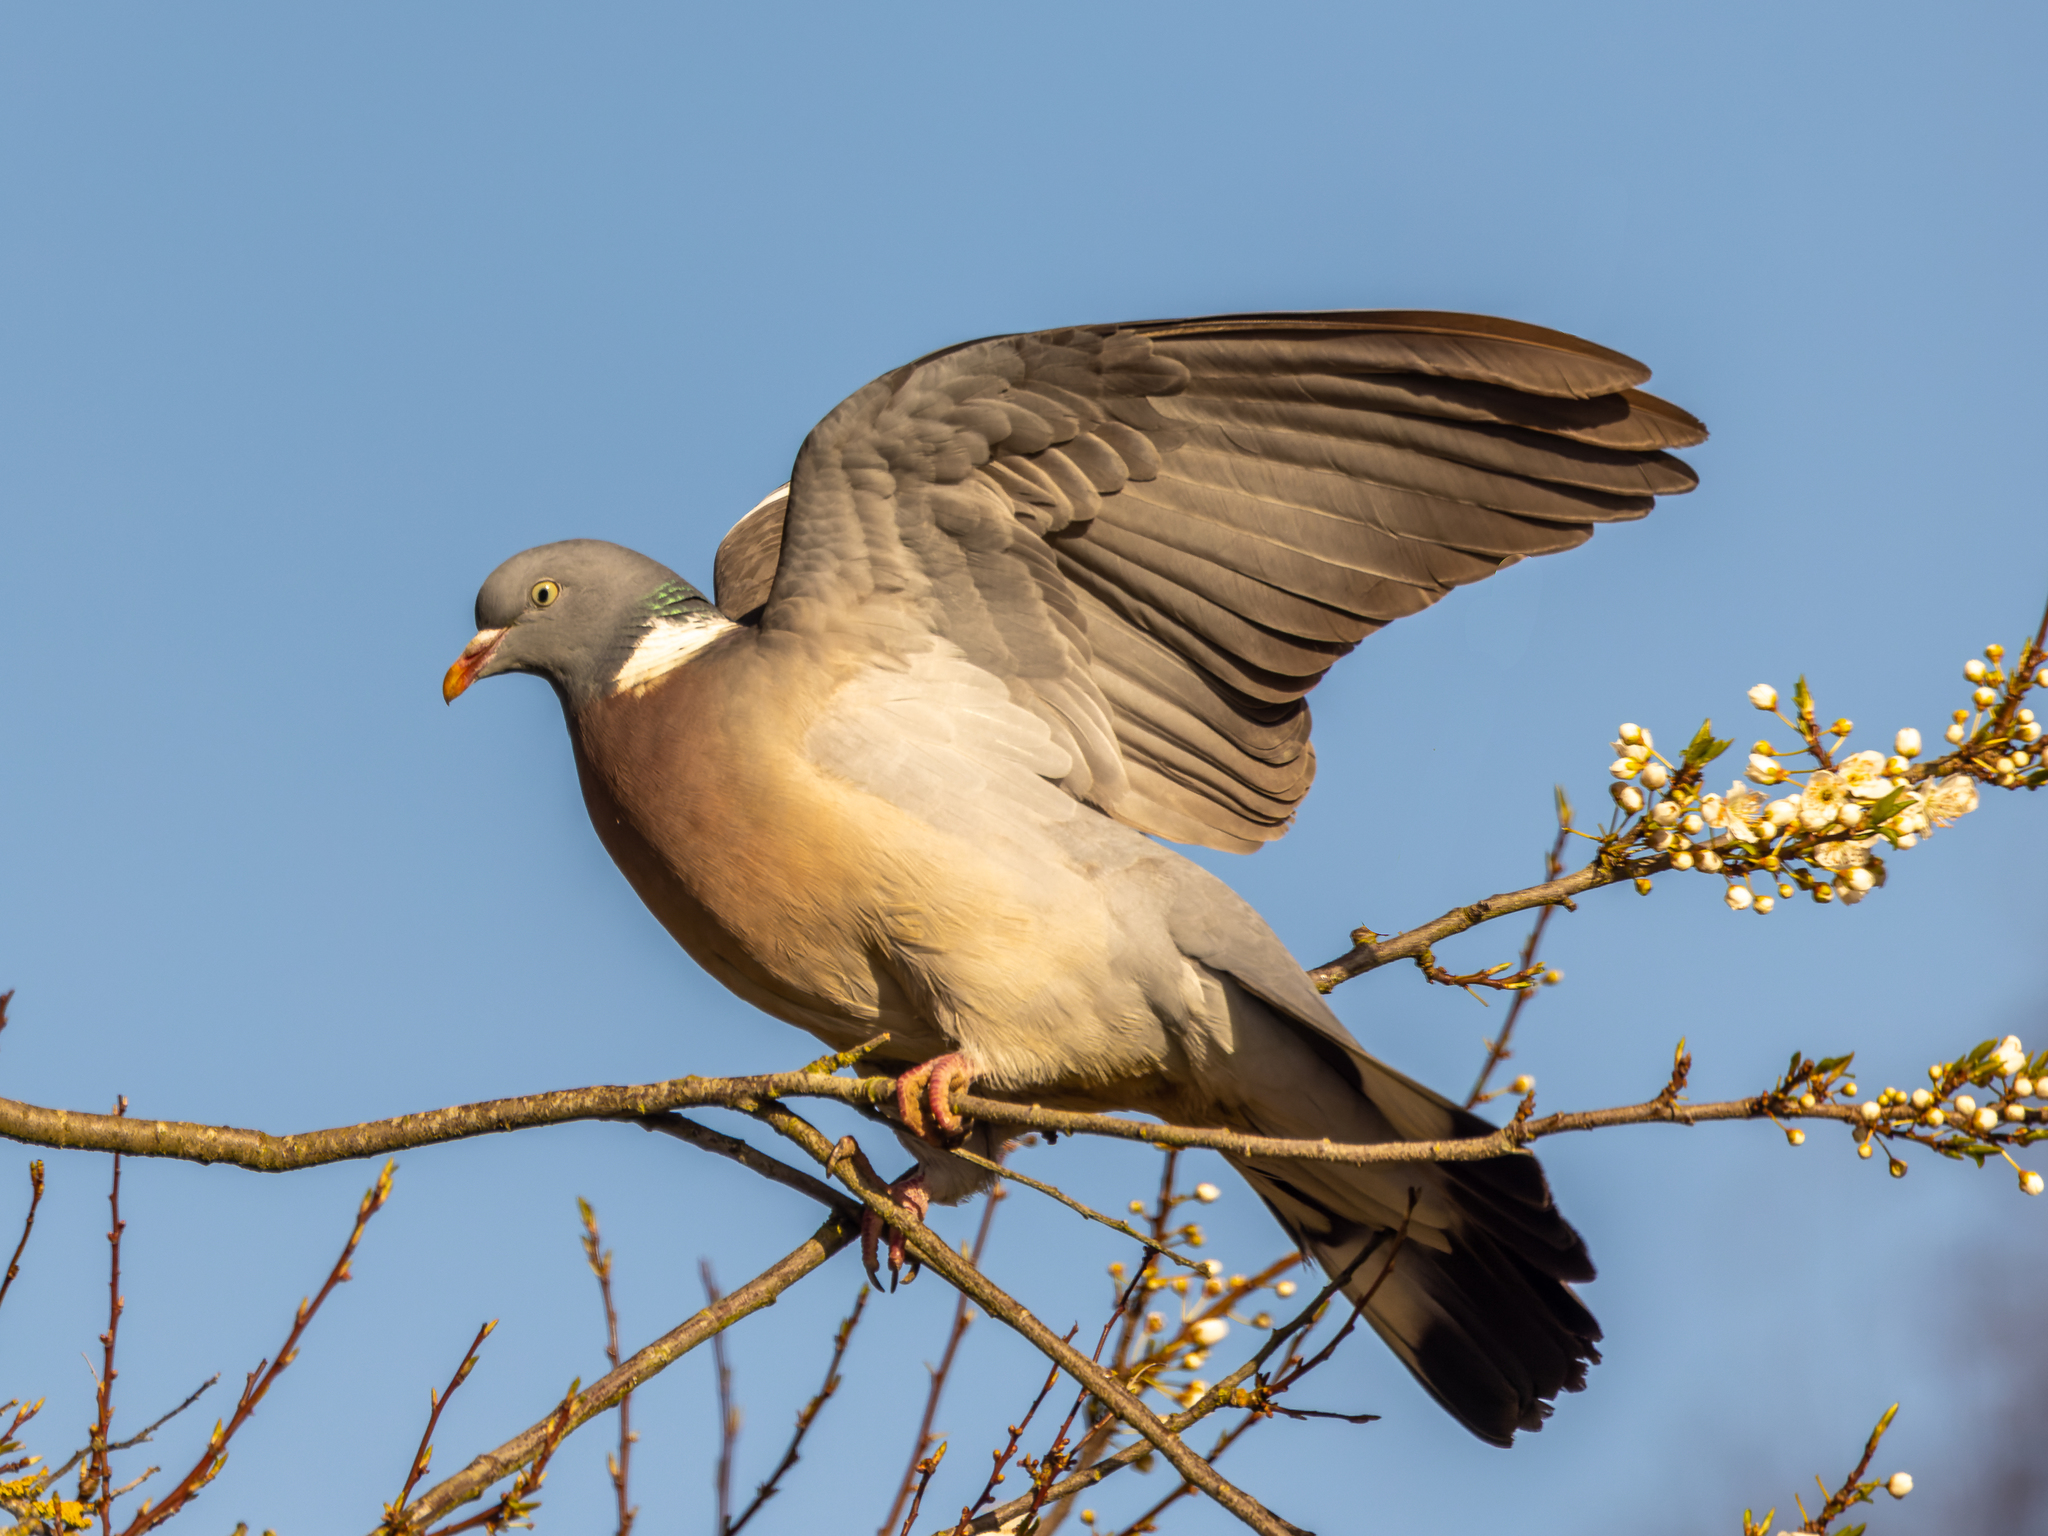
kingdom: Animalia
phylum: Chordata
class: Aves
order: Columbiformes
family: Columbidae
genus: Columba
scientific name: Columba palumbus
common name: Common wood pigeon
